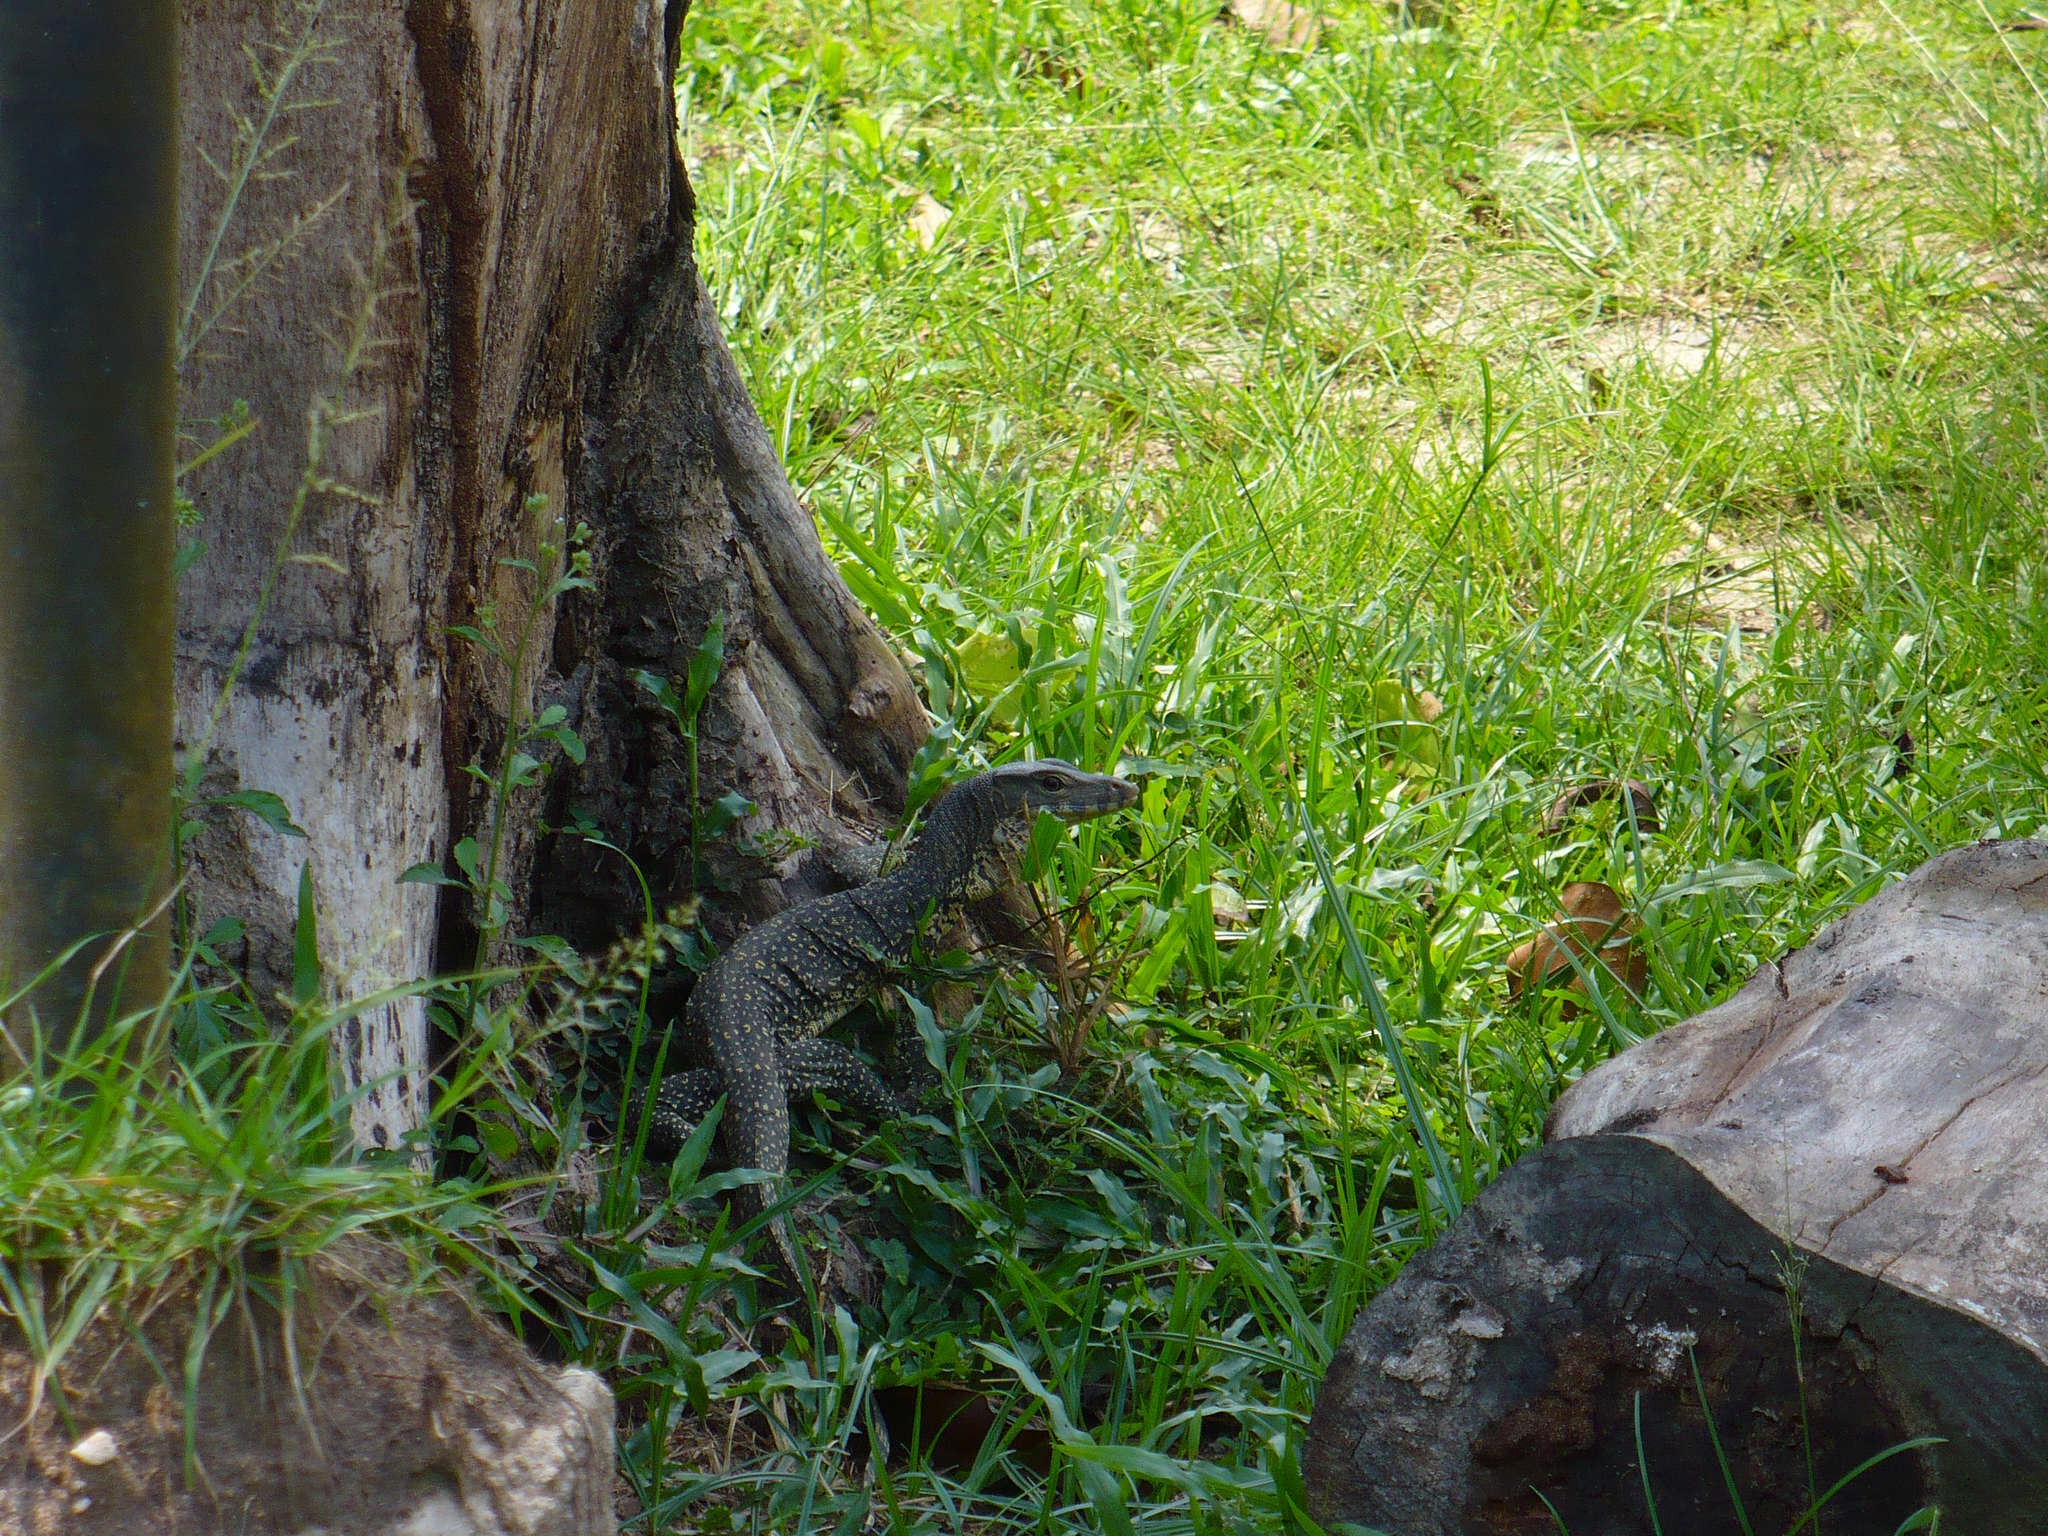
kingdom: Animalia
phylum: Chordata
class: Squamata
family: Varanidae
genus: Varanus
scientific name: Varanus salvator
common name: Common water monitor
